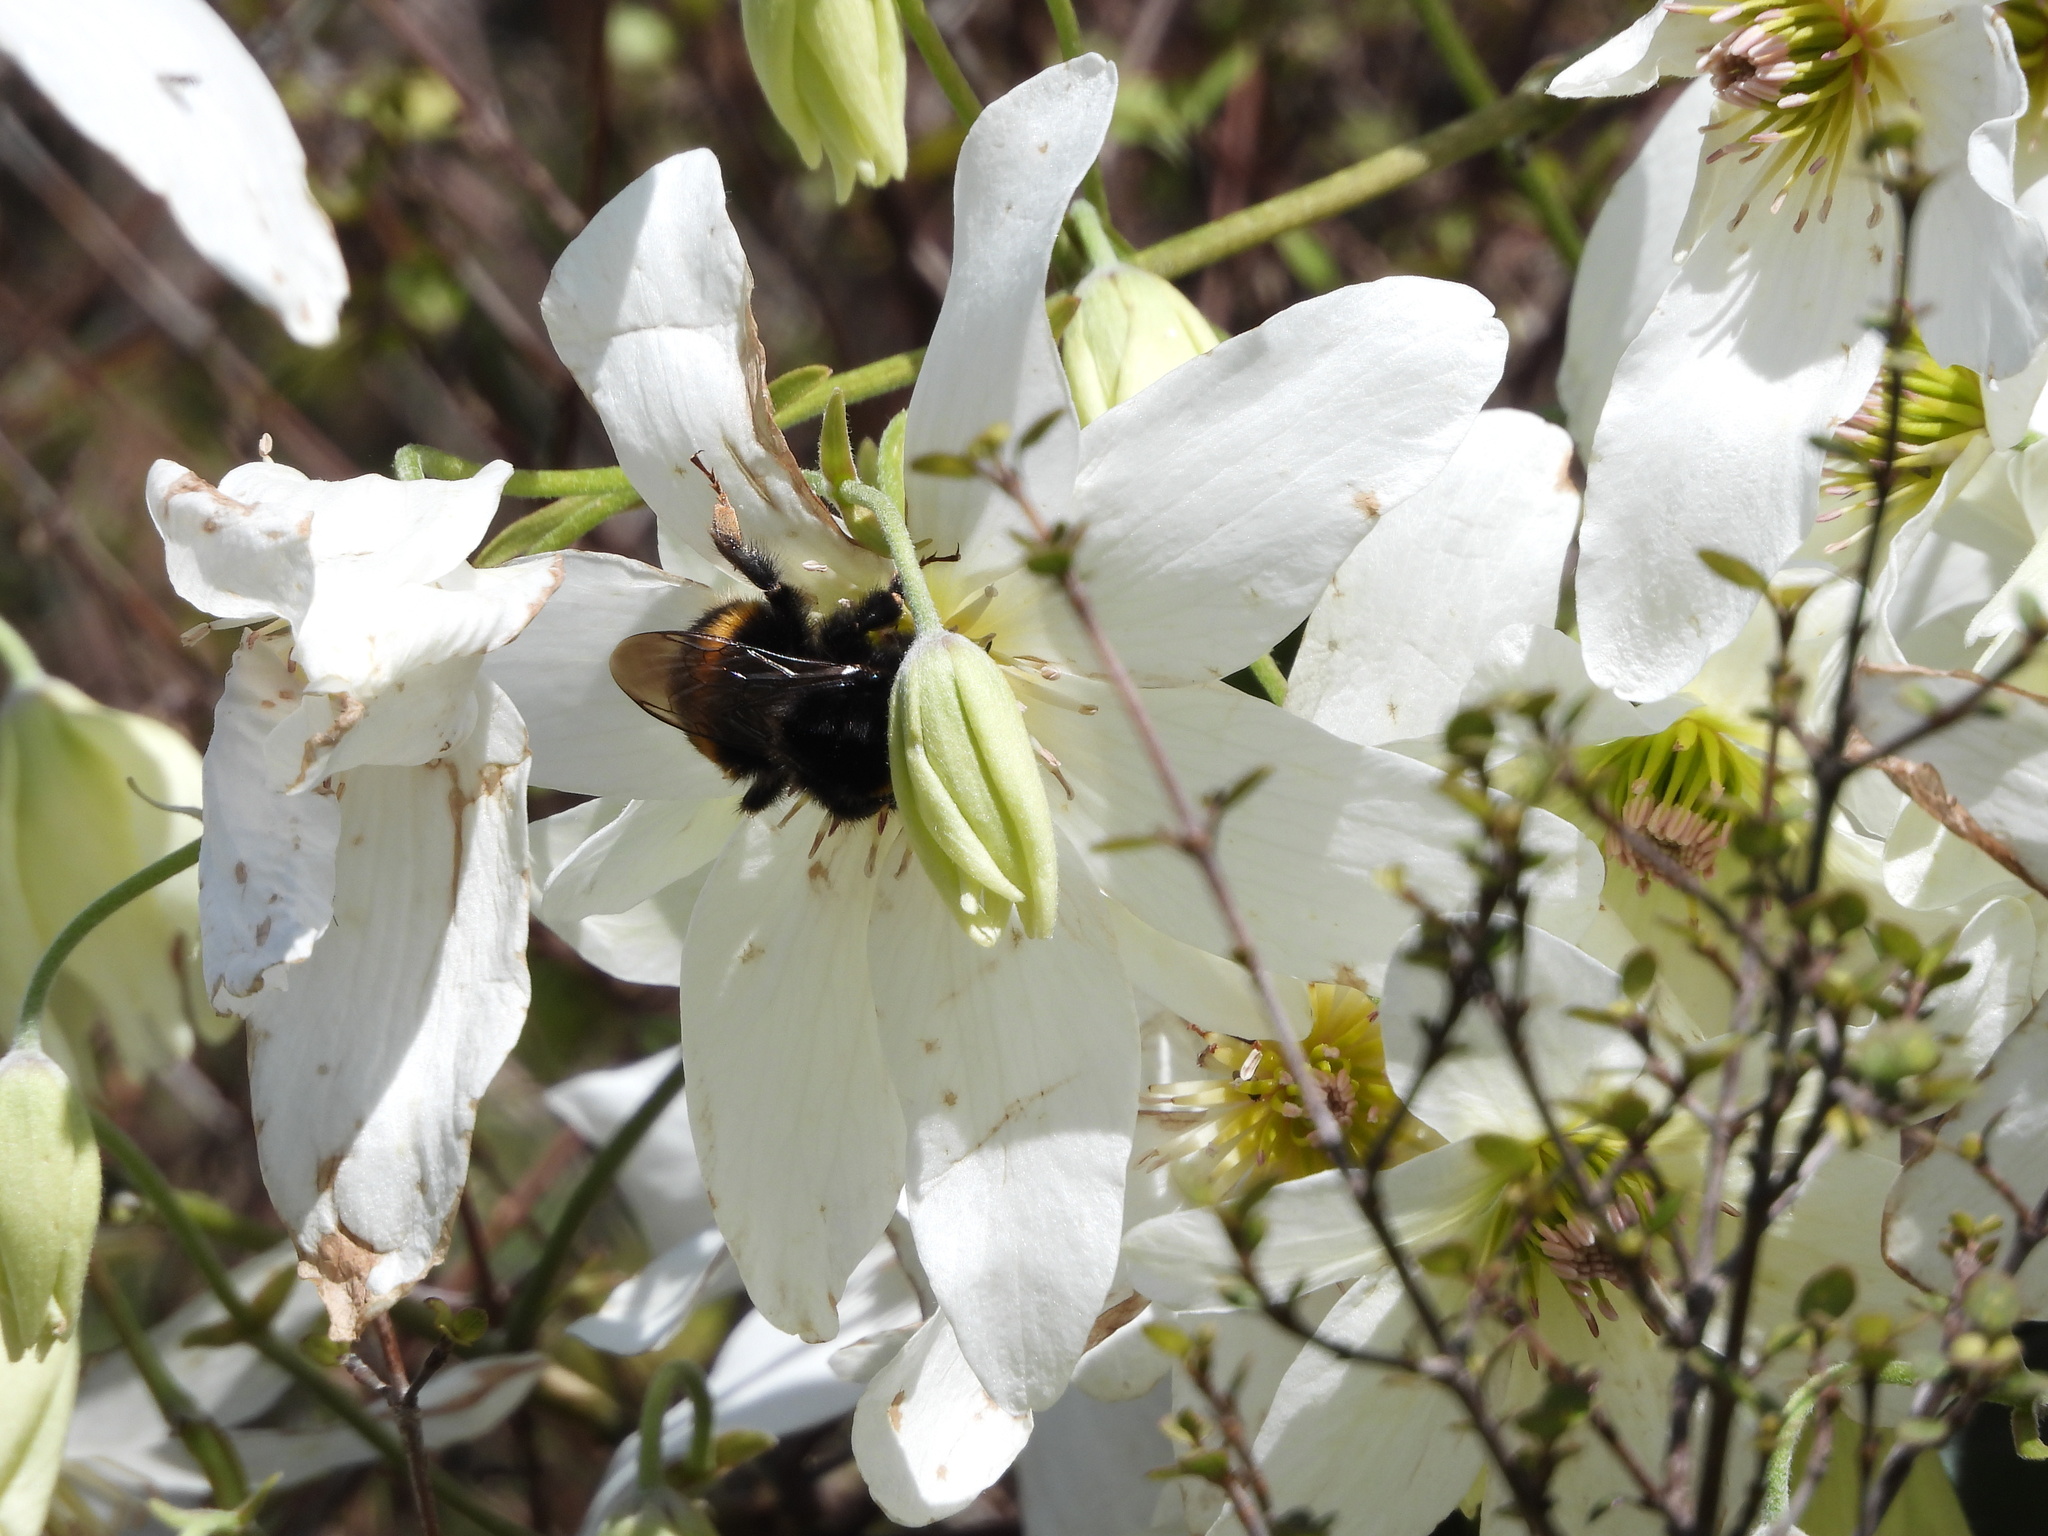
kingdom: Animalia
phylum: Arthropoda
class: Insecta
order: Hymenoptera
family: Apidae
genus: Bombus
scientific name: Bombus terrestris
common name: Buff-tailed bumblebee
